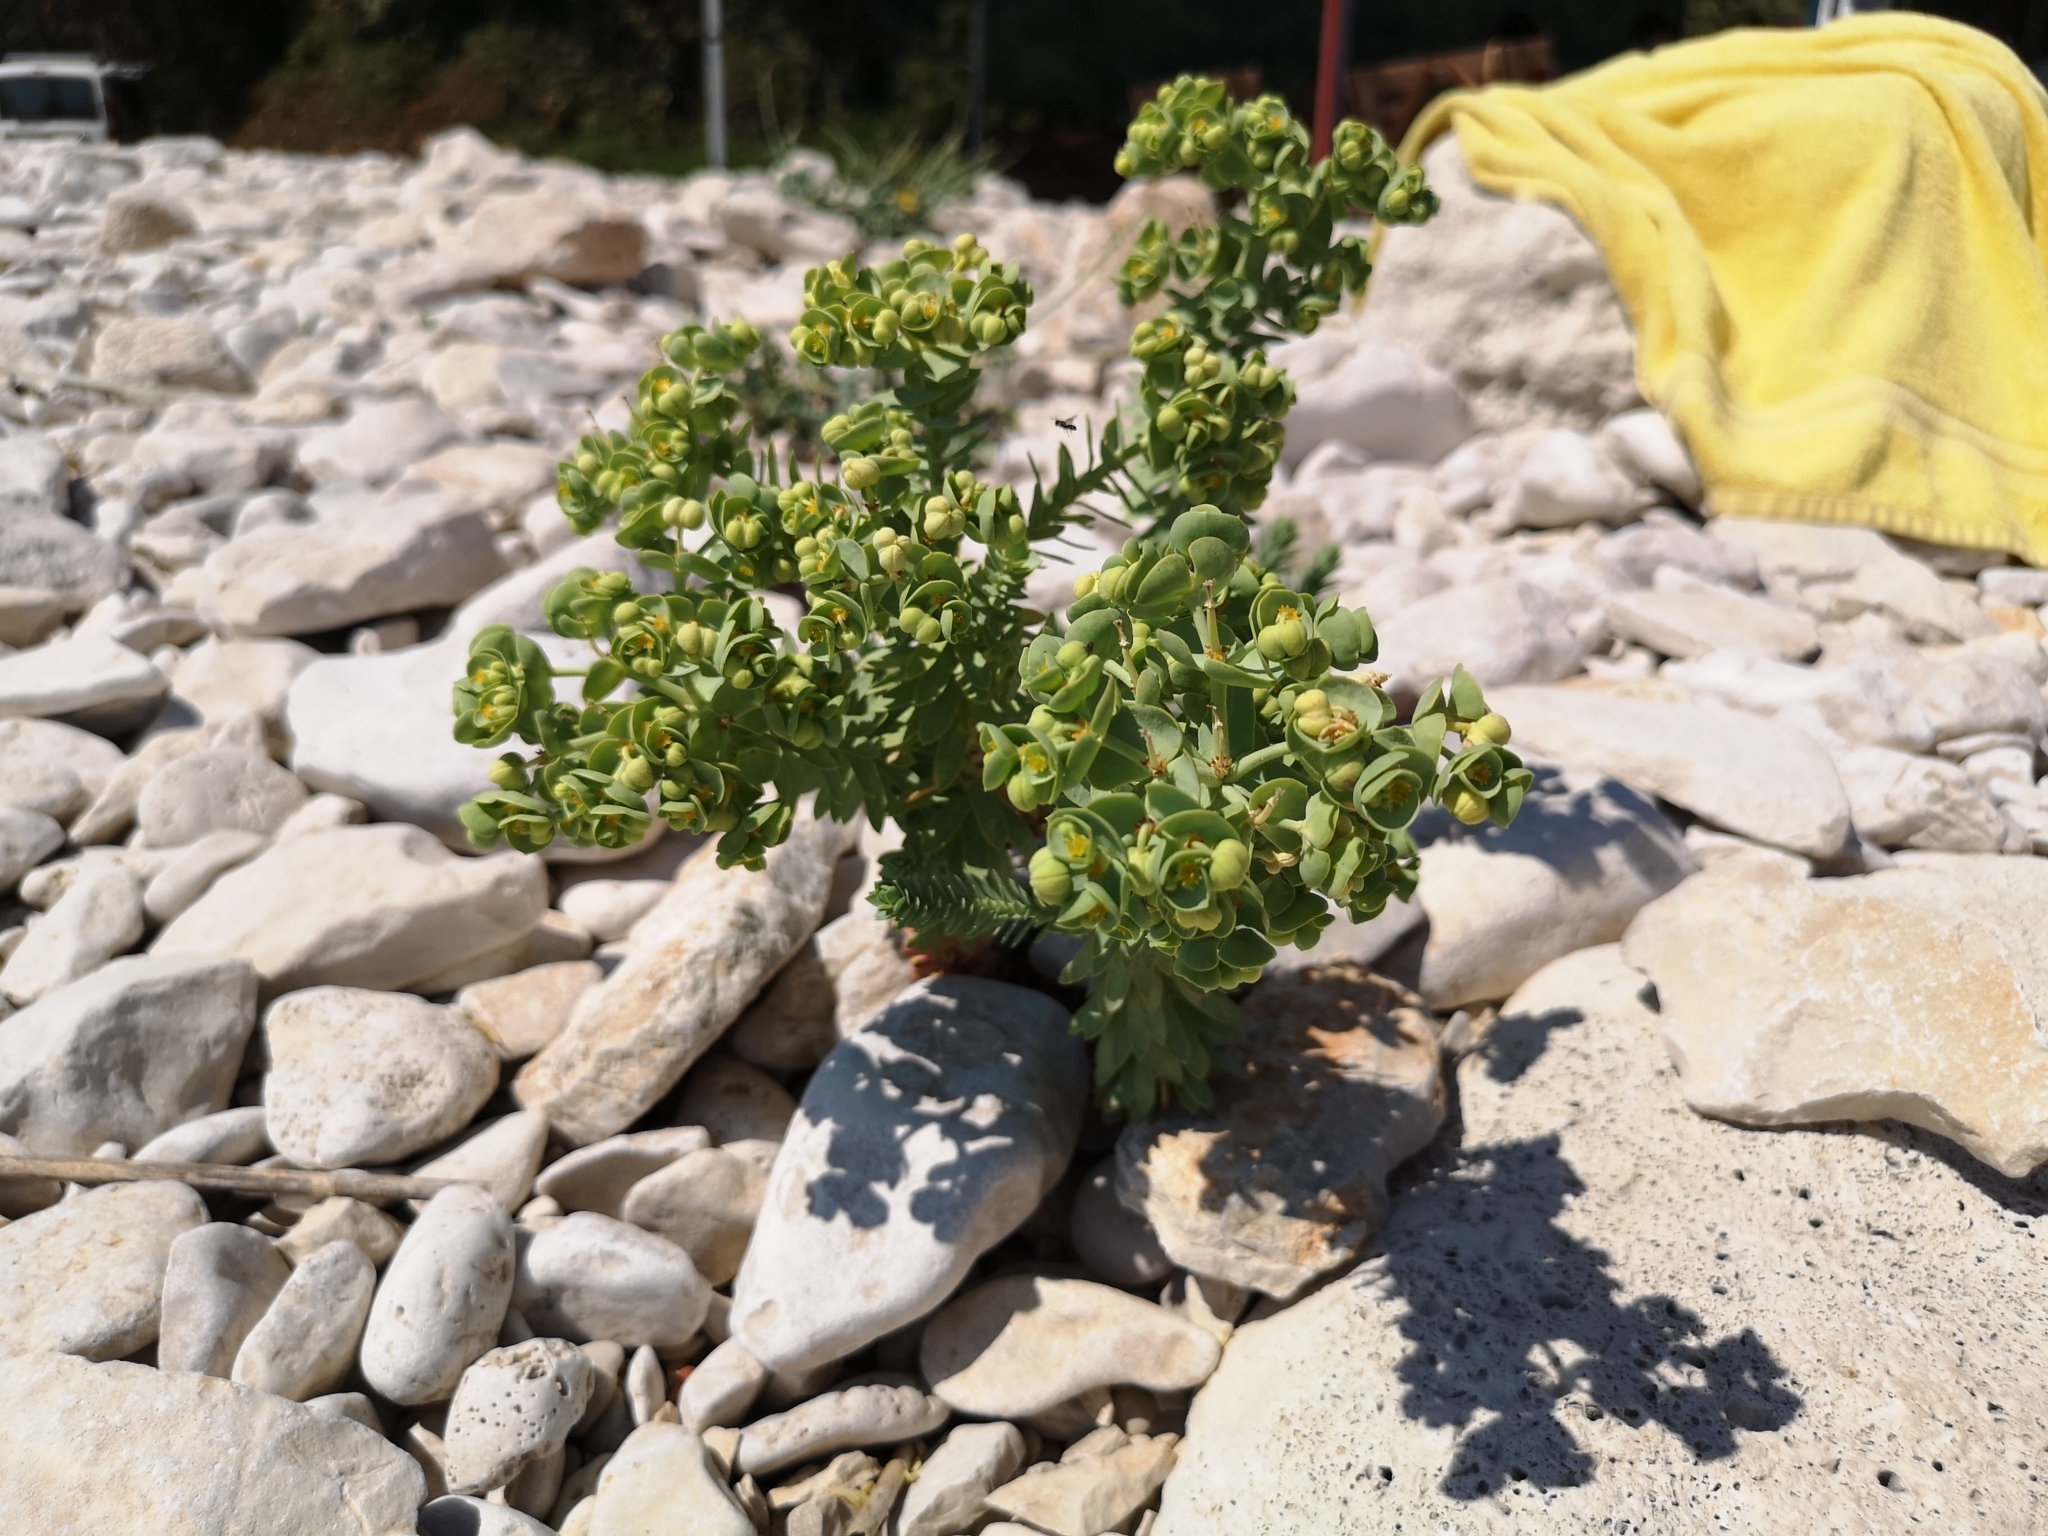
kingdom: Plantae
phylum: Tracheophyta
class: Magnoliopsida
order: Malpighiales
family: Euphorbiaceae
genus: Euphorbia
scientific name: Euphorbia paralias
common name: Sea spurge
